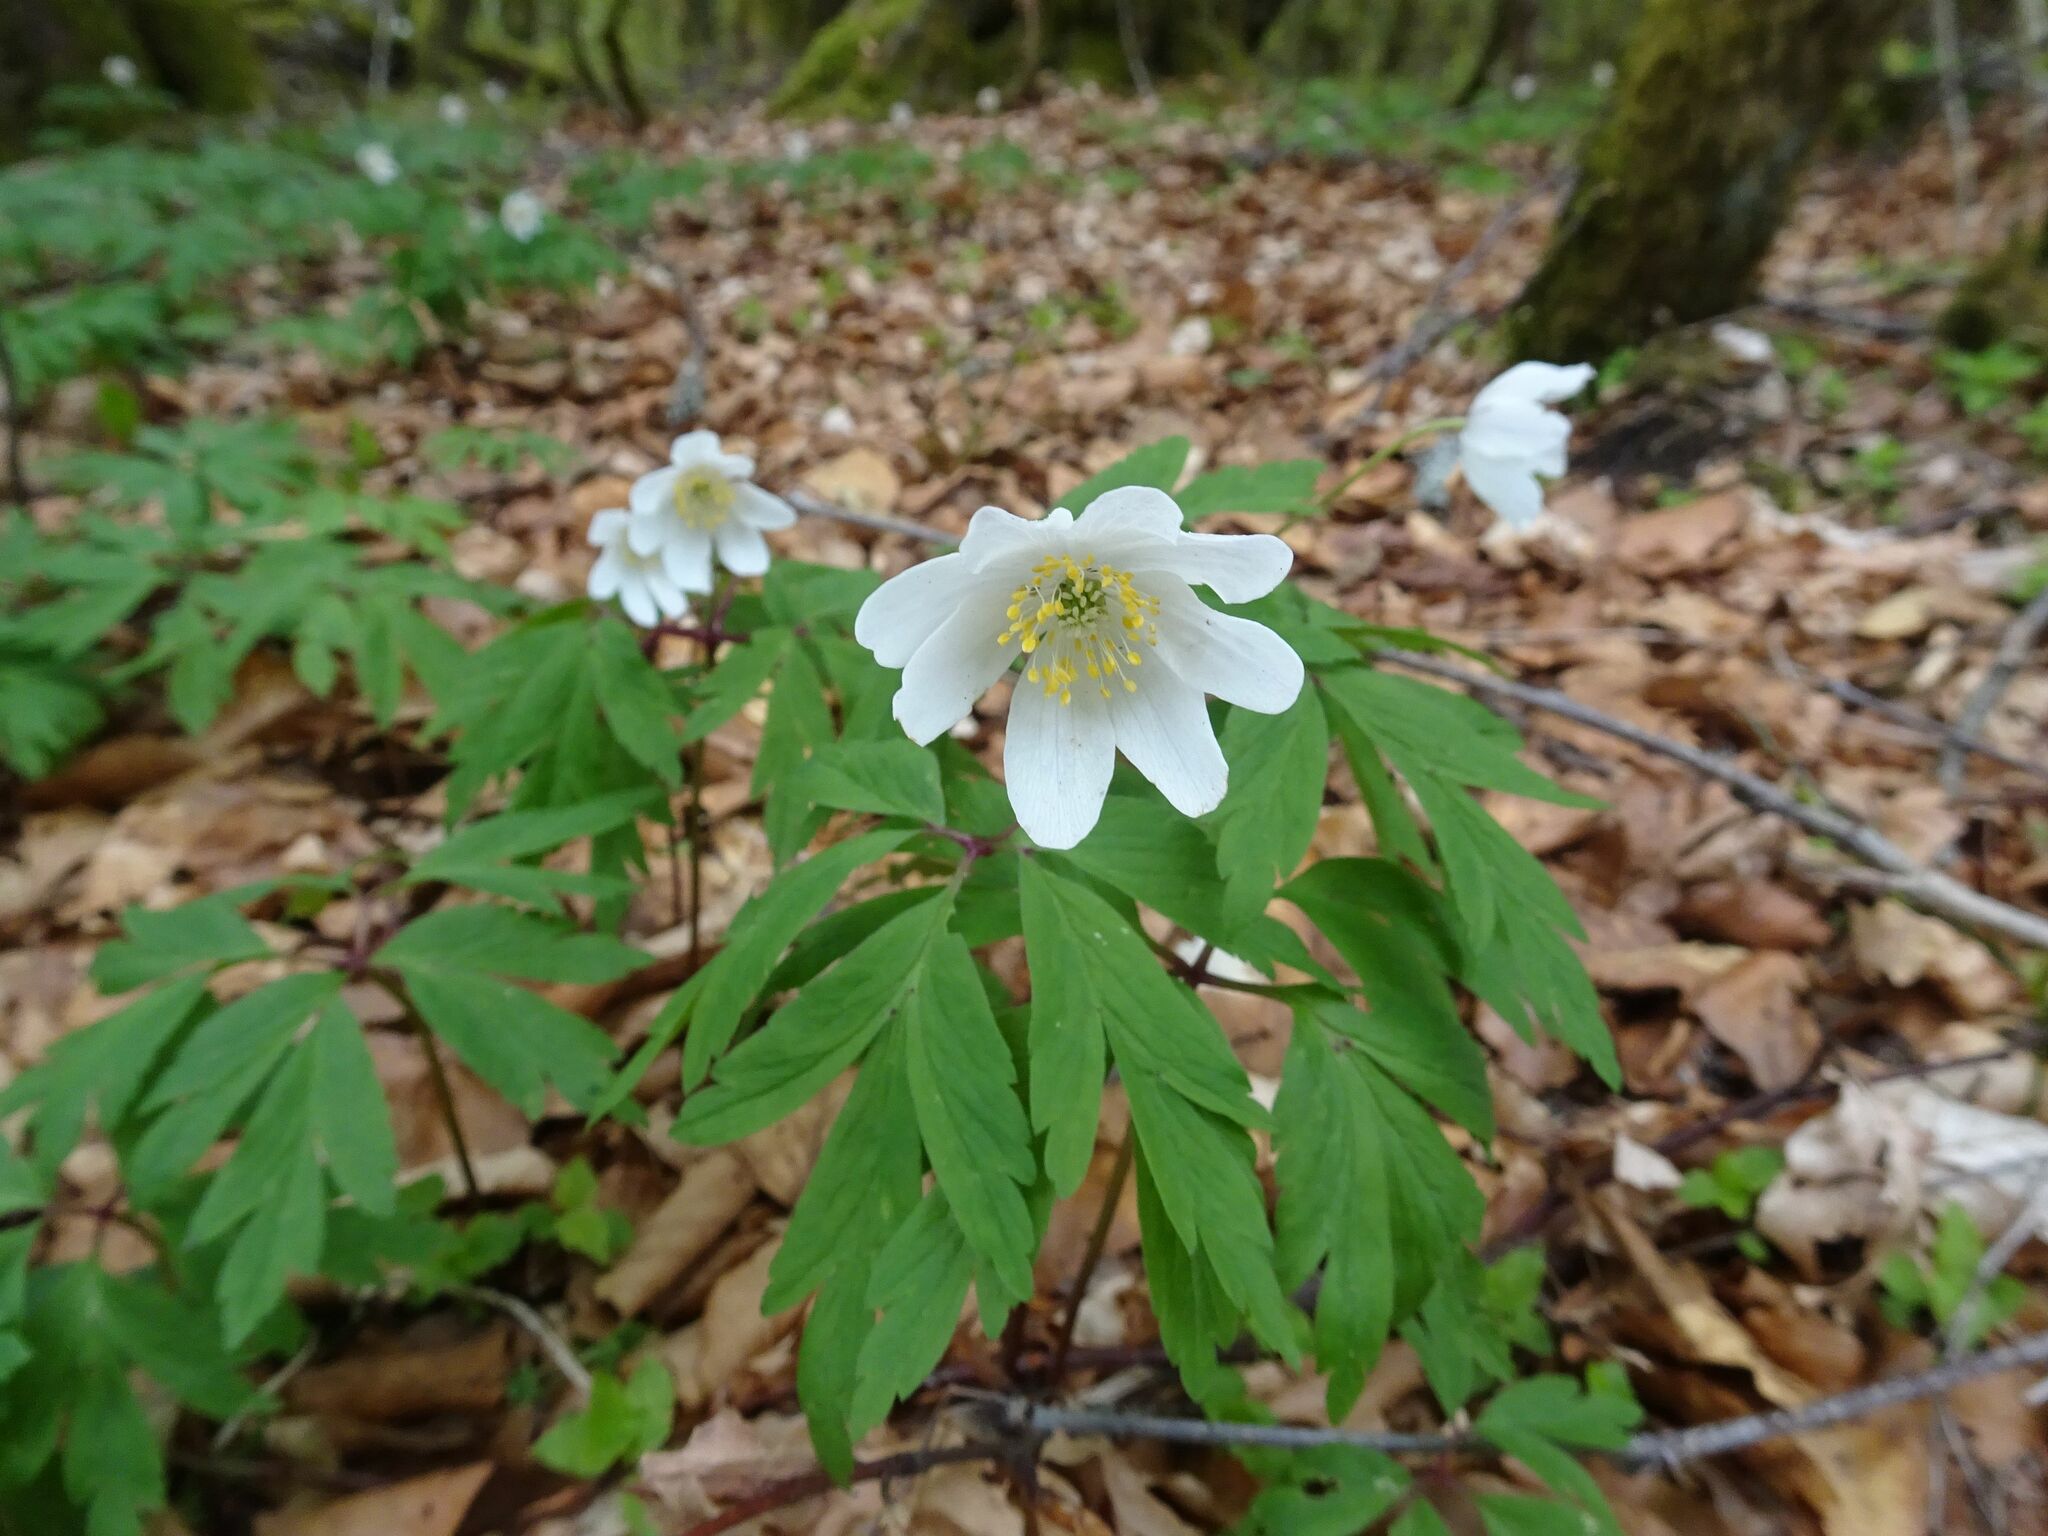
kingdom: Plantae
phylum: Tracheophyta
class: Magnoliopsida
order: Ranunculales
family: Ranunculaceae
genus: Anemone
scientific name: Anemone nemorosa
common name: Wood anemone
